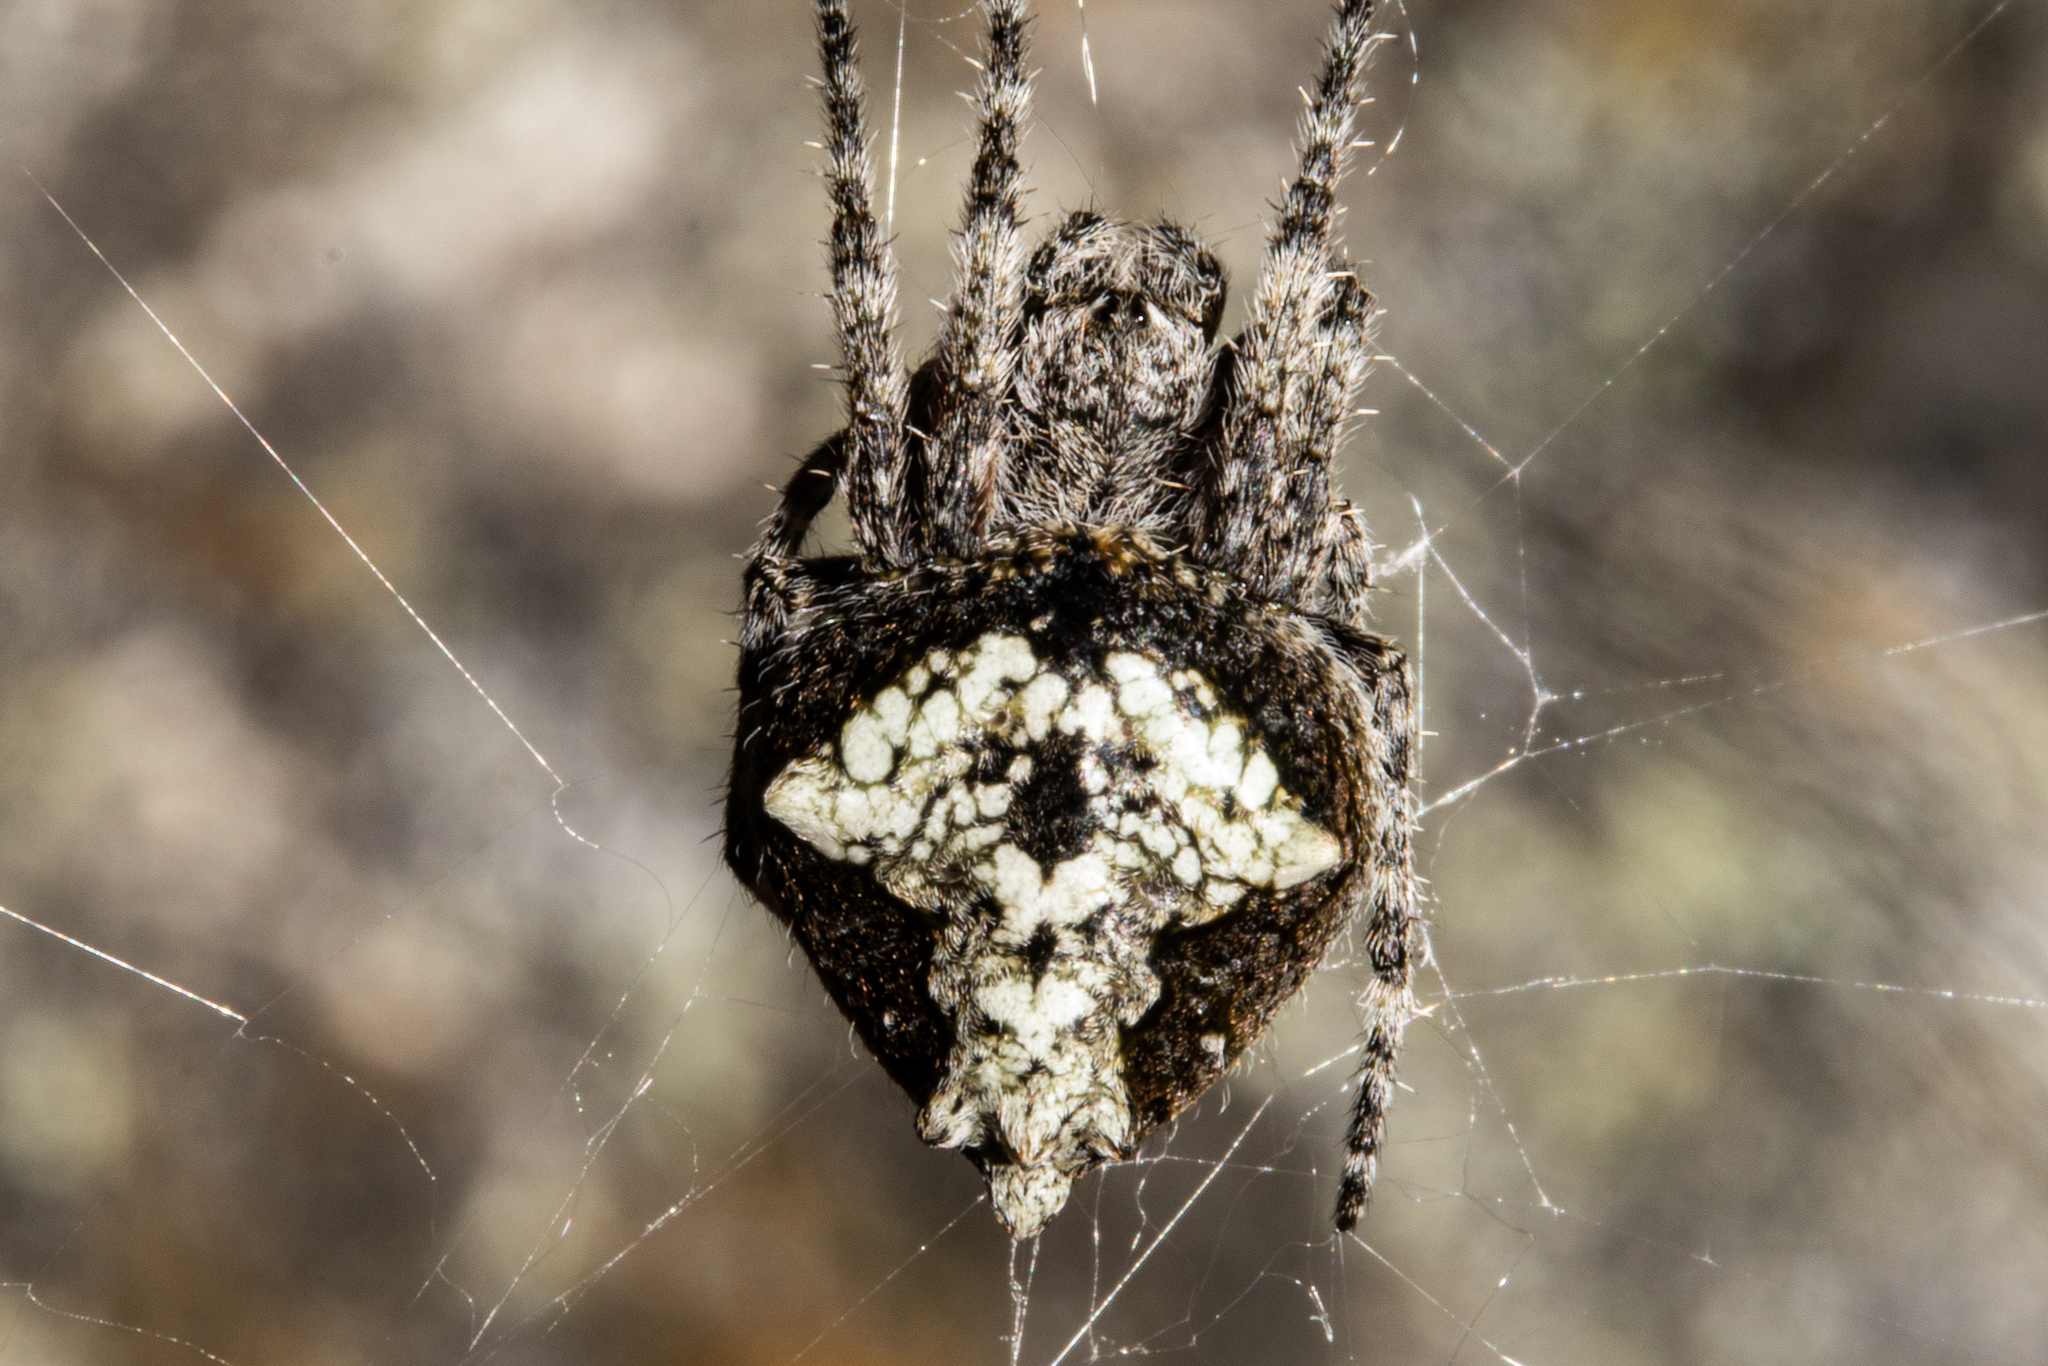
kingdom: Animalia
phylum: Arthropoda
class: Arachnida
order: Araneae
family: Araneidae
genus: Eriophora
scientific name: Eriophora pustulosa
